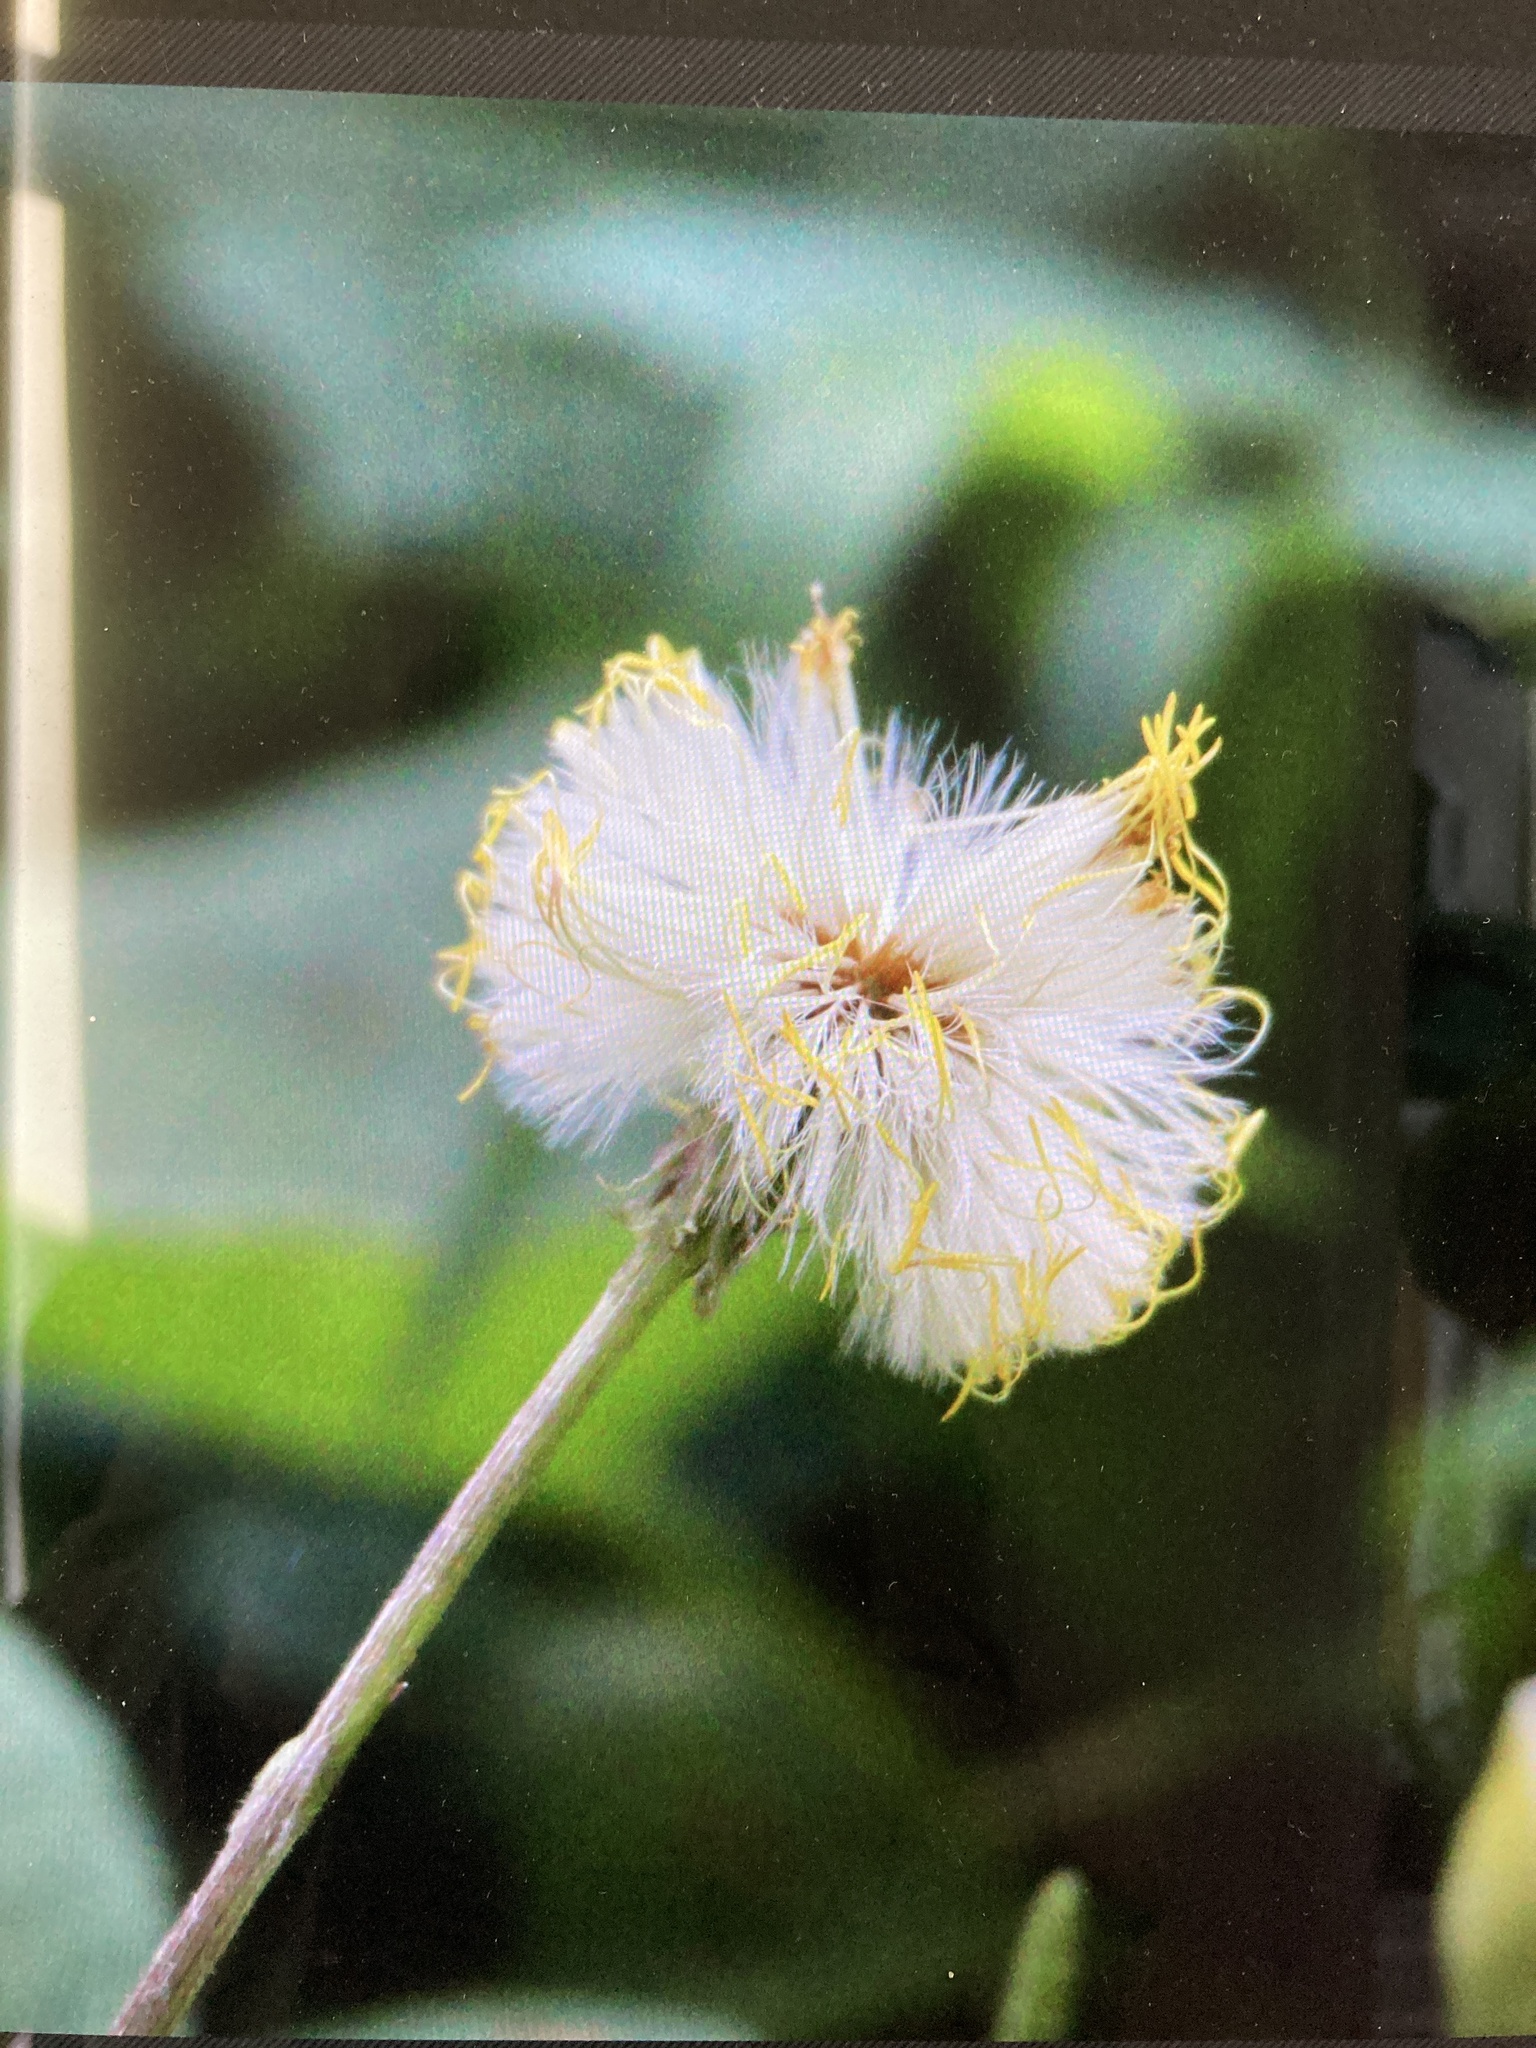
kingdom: Plantae
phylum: Tracheophyta
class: Magnoliopsida
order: Asterales
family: Asteraceae
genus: Tussilago
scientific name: Tussilago farfara
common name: Coltsfoot
